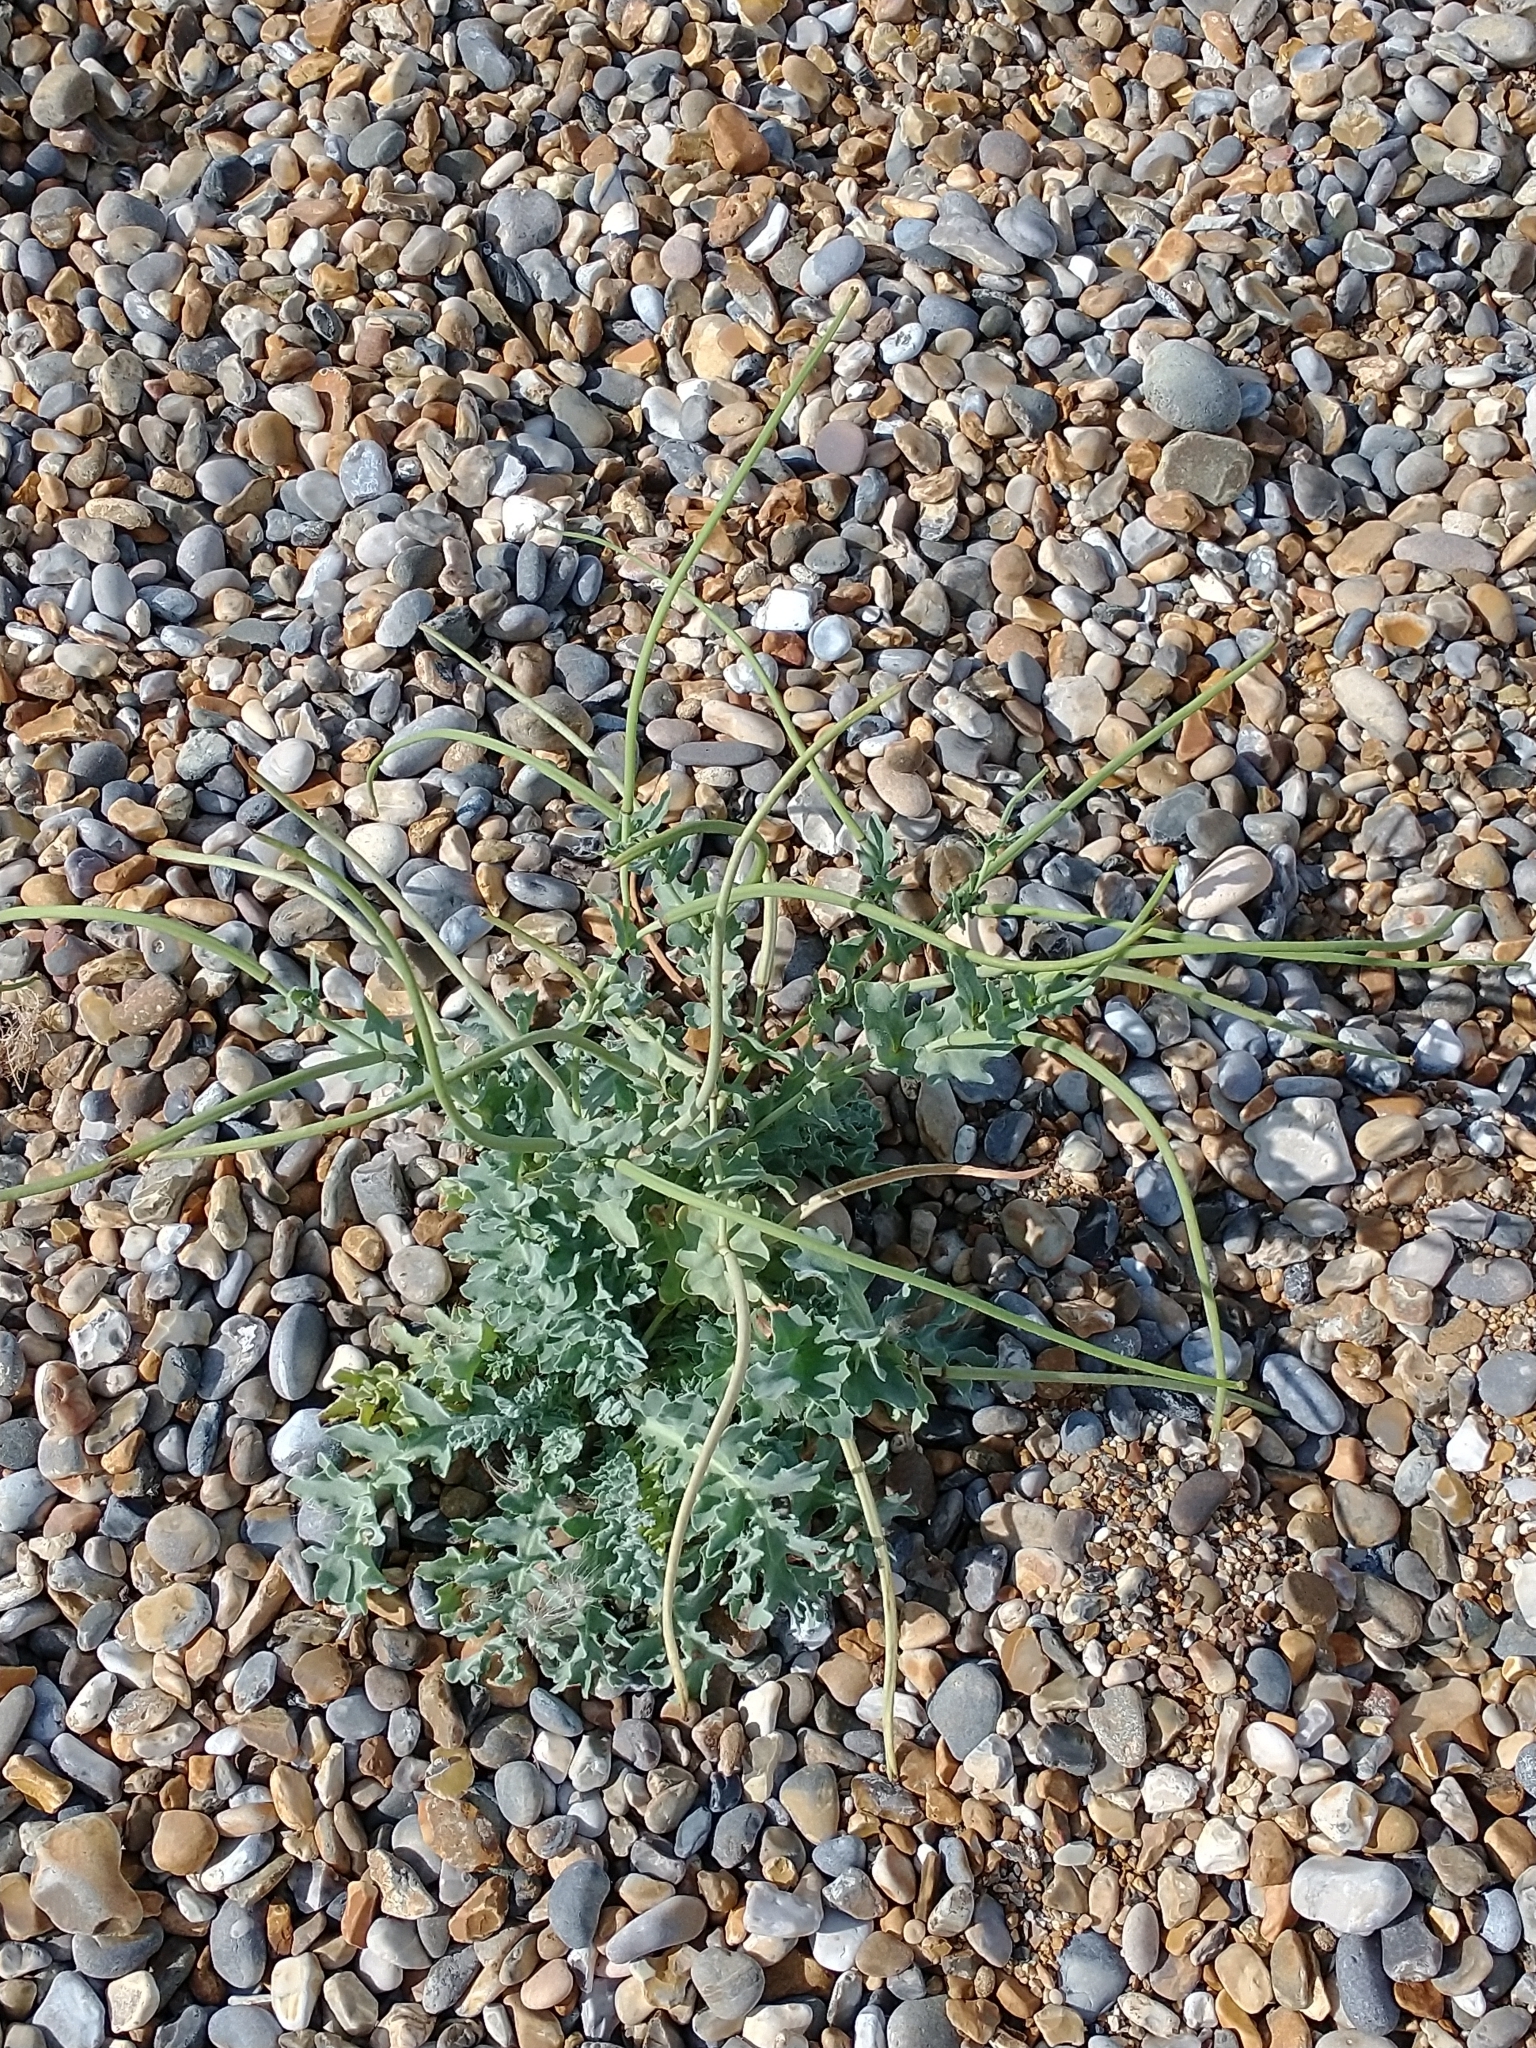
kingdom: Plantae
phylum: Tracheophyta
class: Magnoliopsida
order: Ranunculales
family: Papaveraceae
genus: Glaucium
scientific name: Glaucium flavum
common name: Yellow horned-poppy
